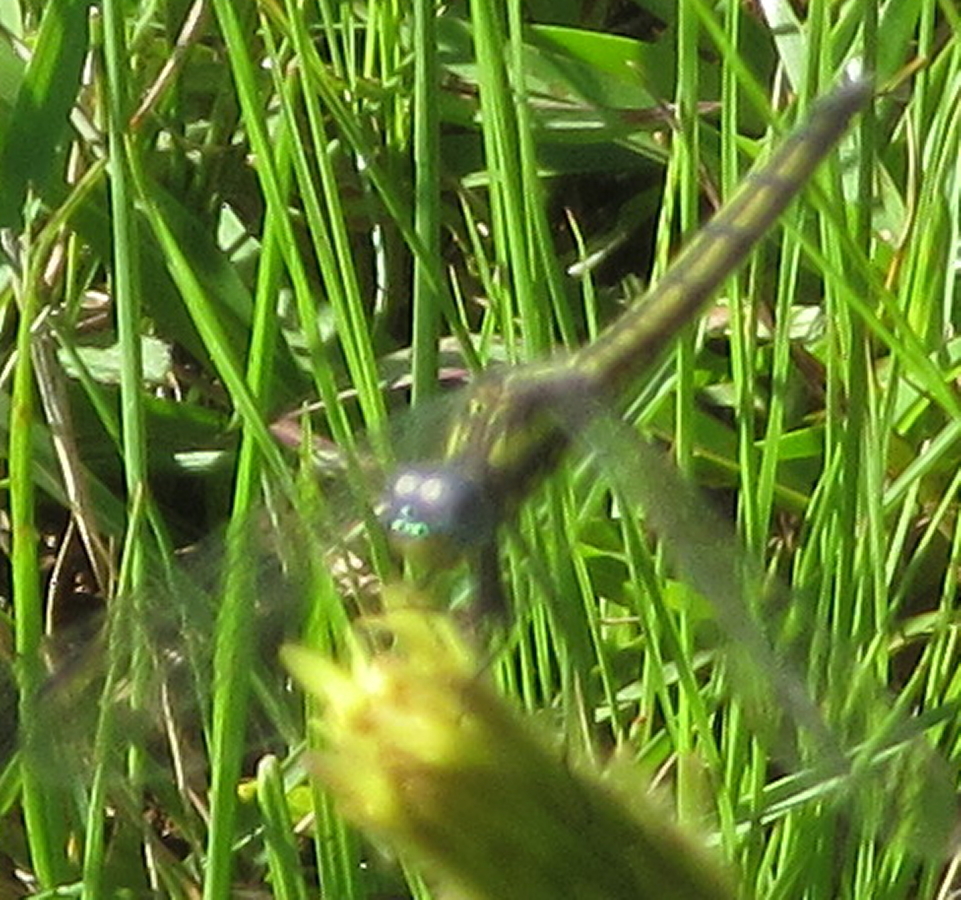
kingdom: Animalia
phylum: Arthropoda
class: Insecta
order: Odonata
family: Libellulidae
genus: Trithemis
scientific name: Trithemis stictica
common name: Jaunty dropwing
